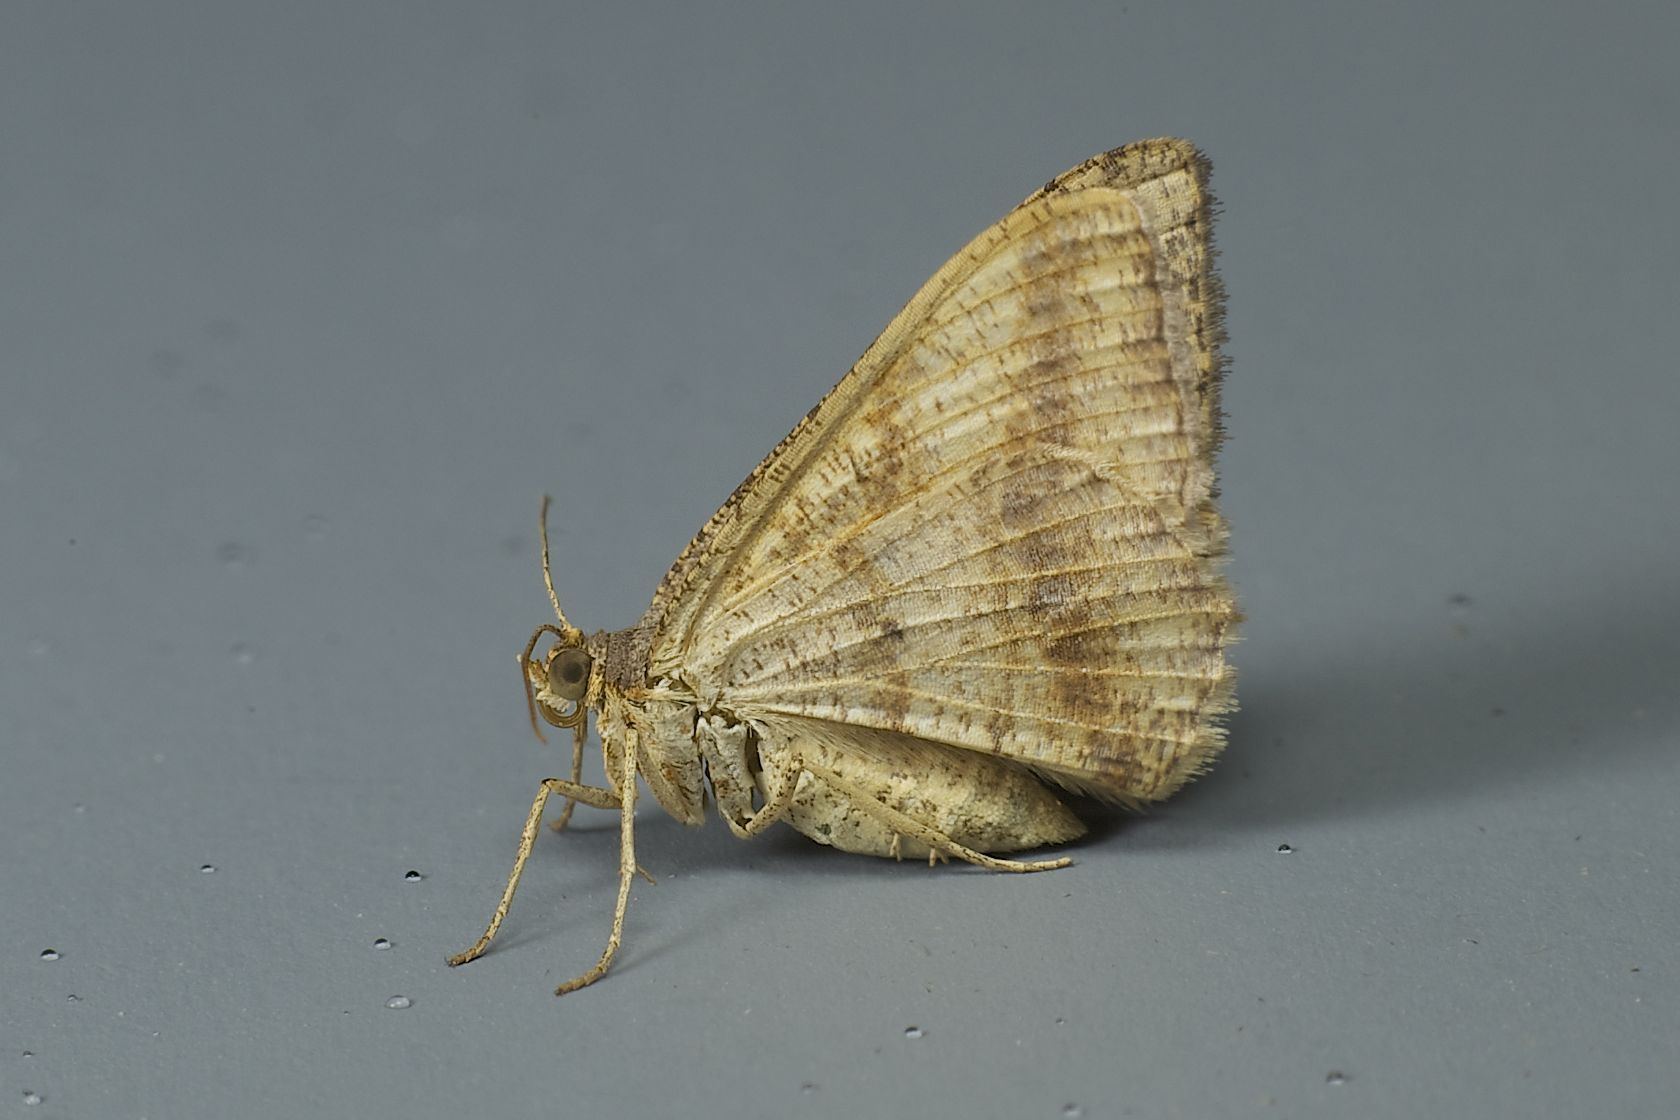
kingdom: Animalia
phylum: Arthropoda
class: Insecta
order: Lepidoptera
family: Geometridae
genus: Chiasmia
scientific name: Chiasmia fidoniata
